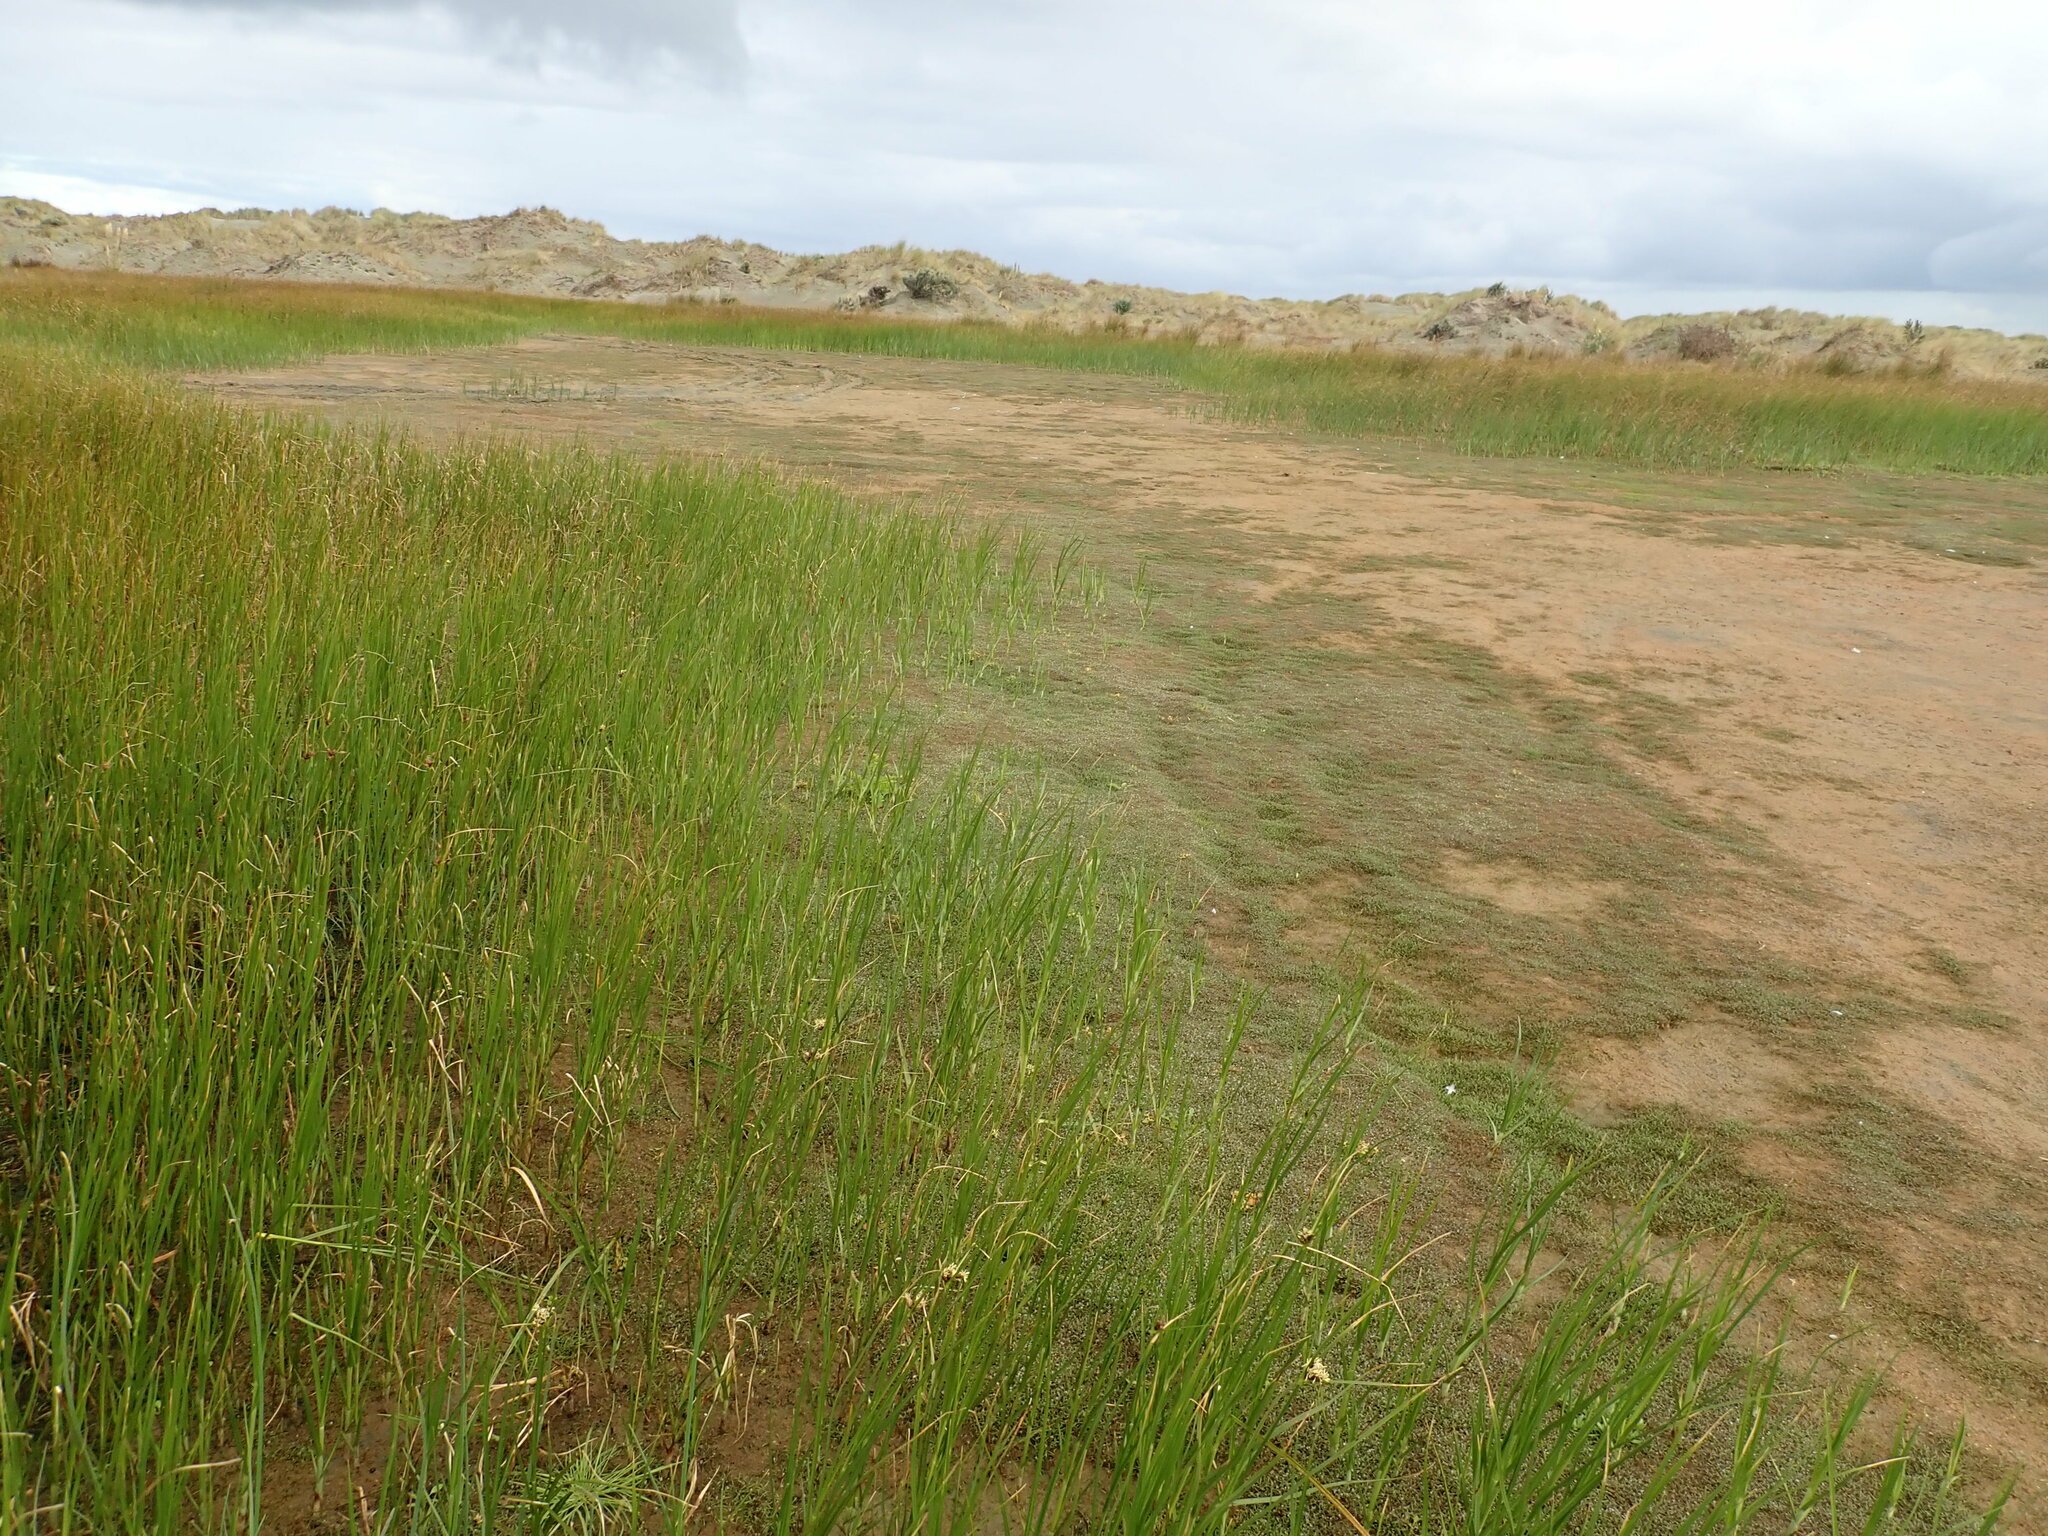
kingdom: Plantae
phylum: Tracheophyta
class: Magnoliopsida
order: Lamiales
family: Scrophulariaceae
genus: Limosella
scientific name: Limosella australis
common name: Welsh mudwort
